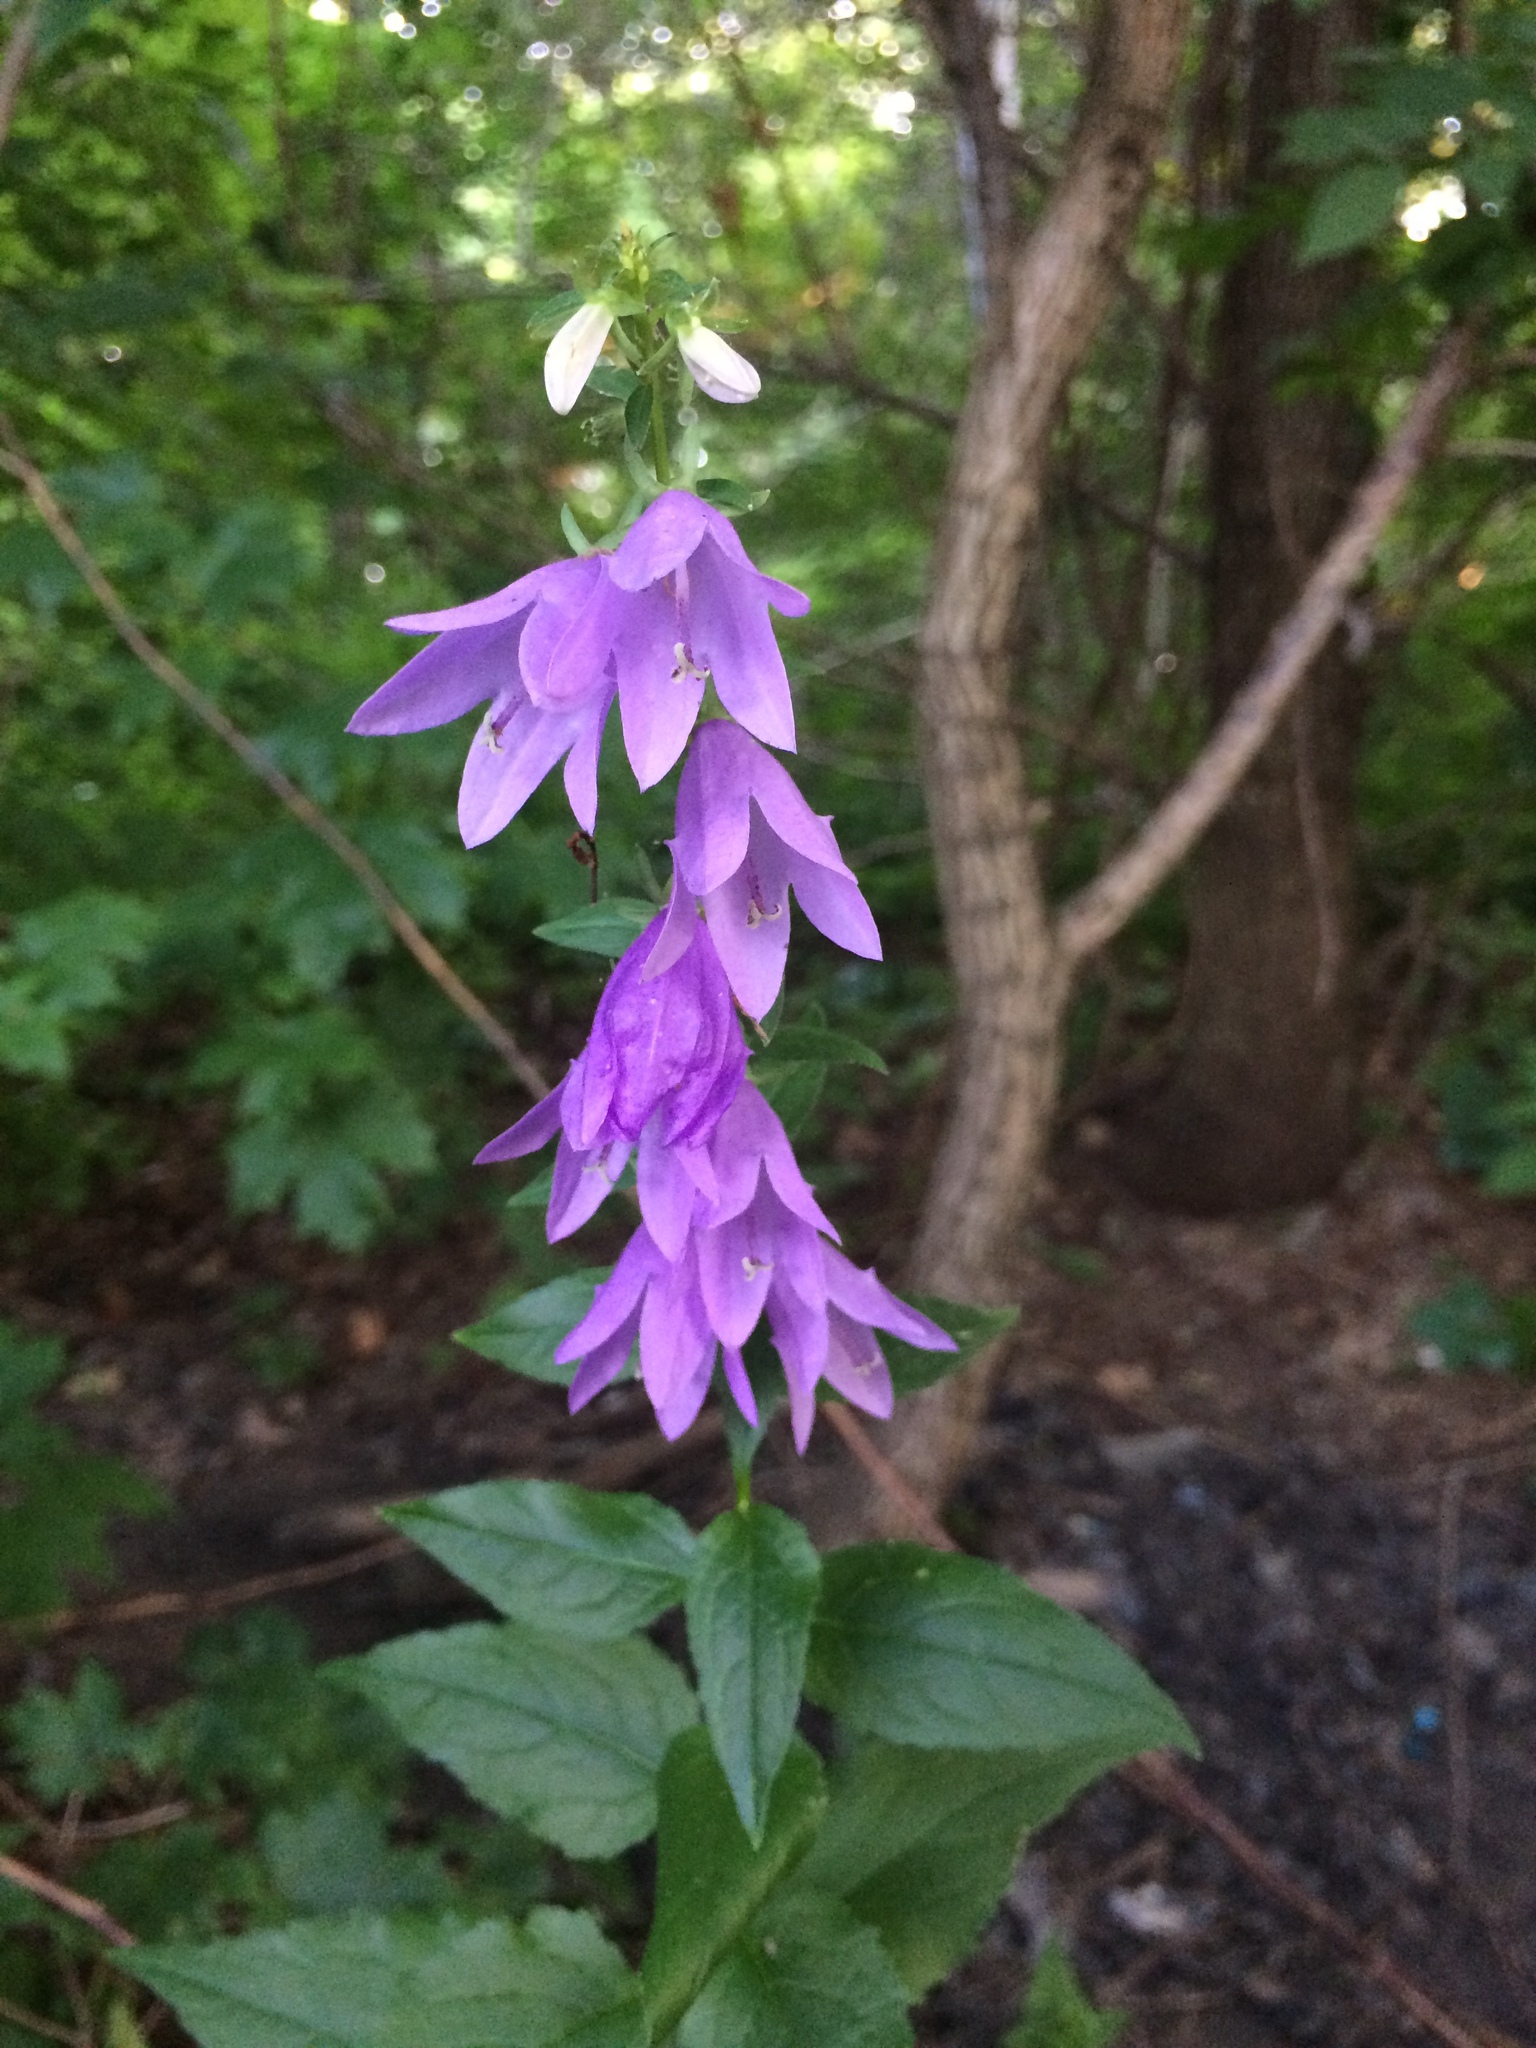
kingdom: Plantae
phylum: Tracheophyta
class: Magnoliopsida
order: Asterales
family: Campanulaceae
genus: Campanula
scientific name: Campanula rapunculoides
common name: Creeping bellflower
